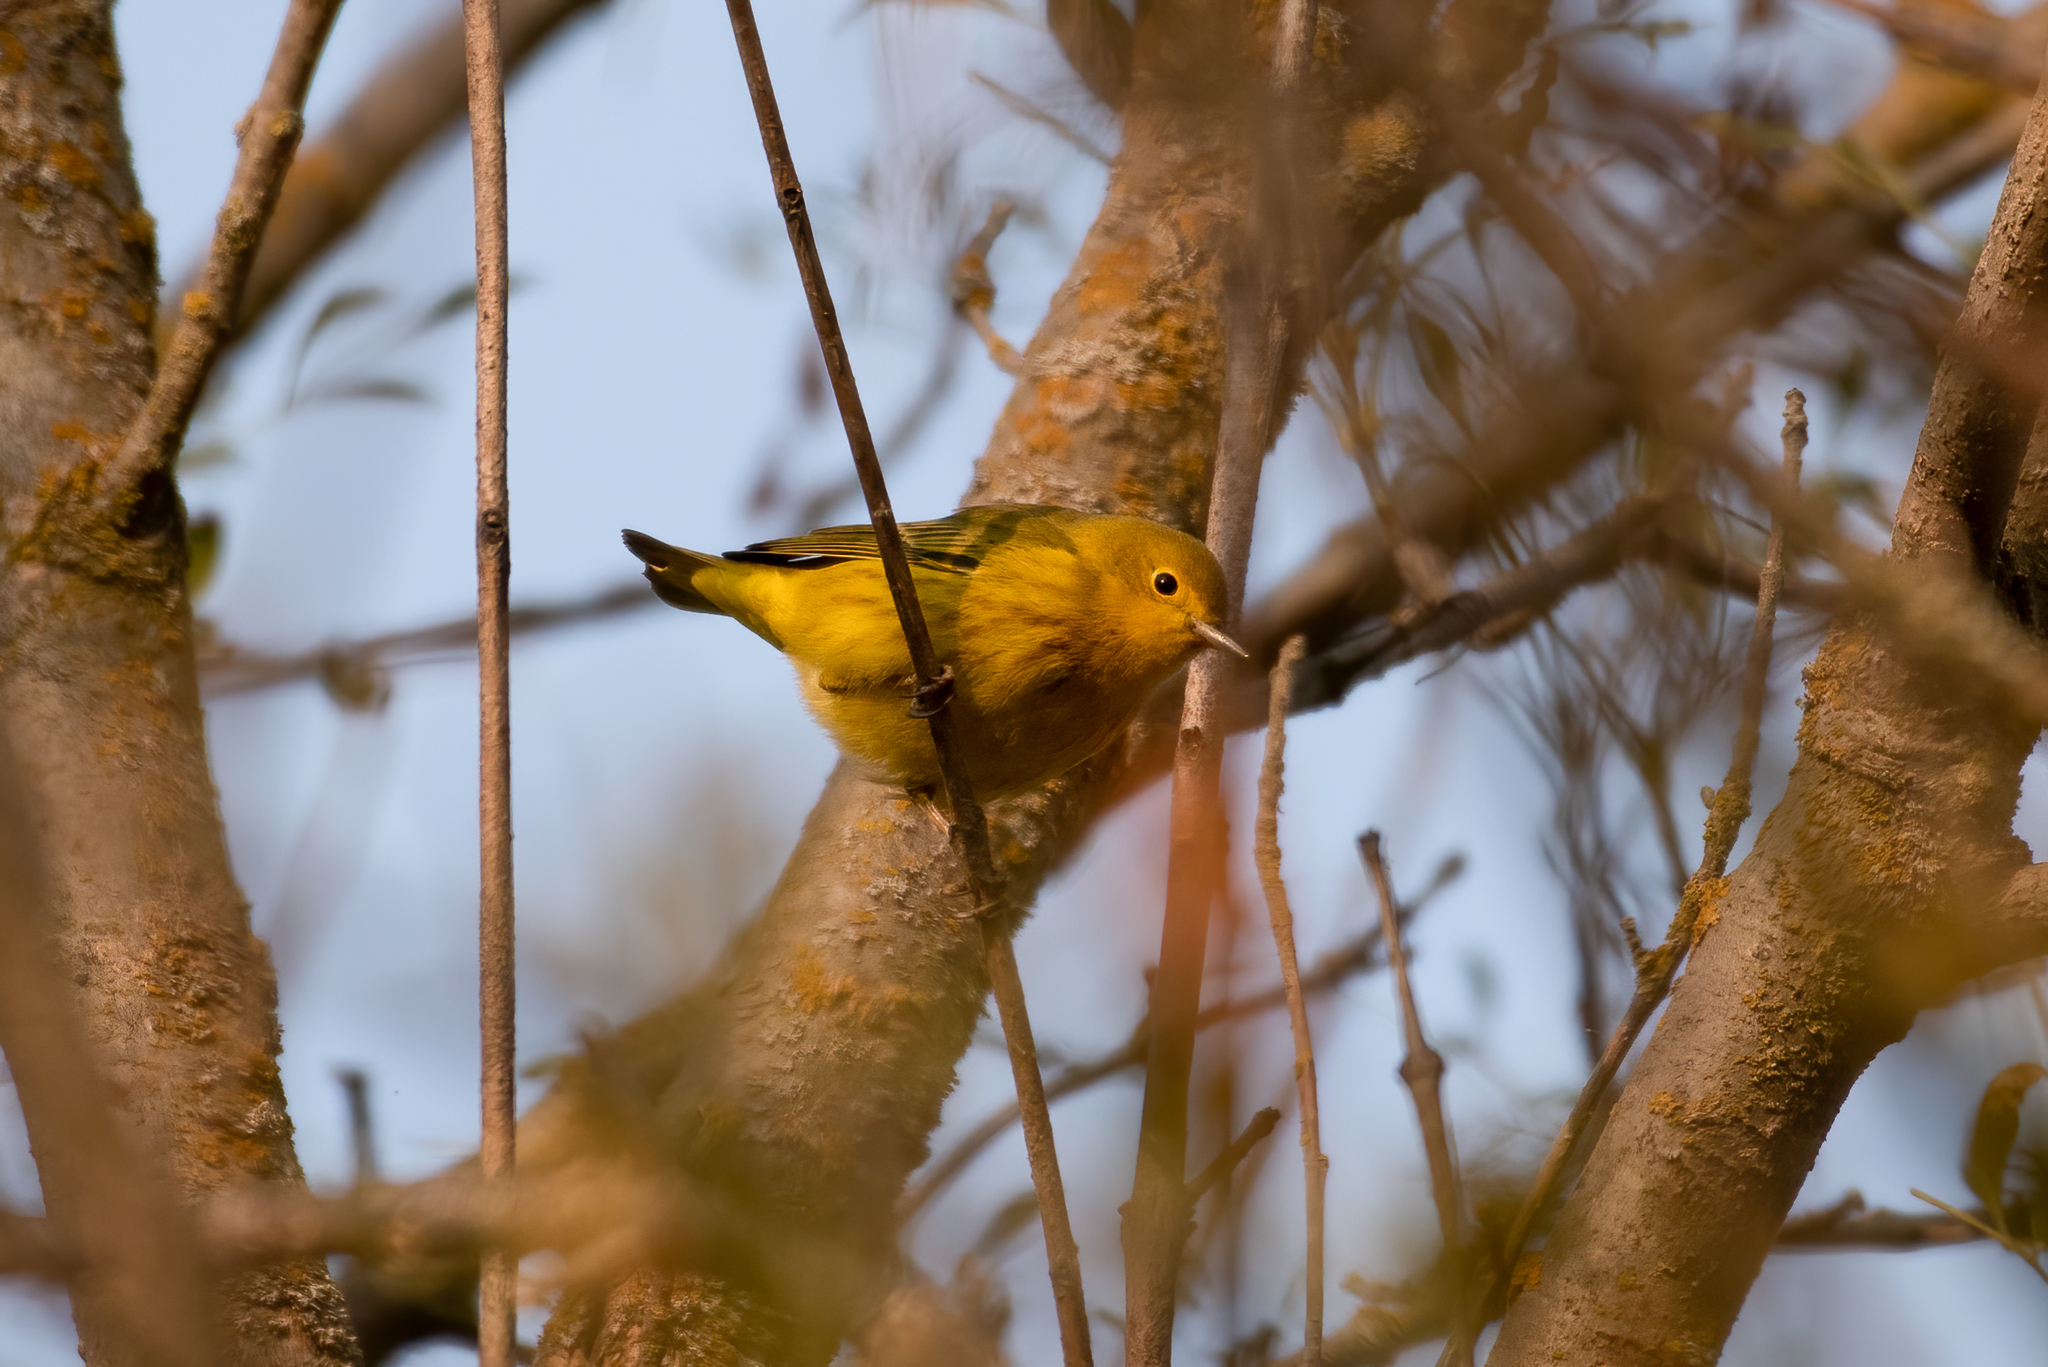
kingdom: Animalia
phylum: Chordata
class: Aves
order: Passeriformes
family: Parulidae
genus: Setophaga
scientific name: Setophaga petechia
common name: Yellow warbler
